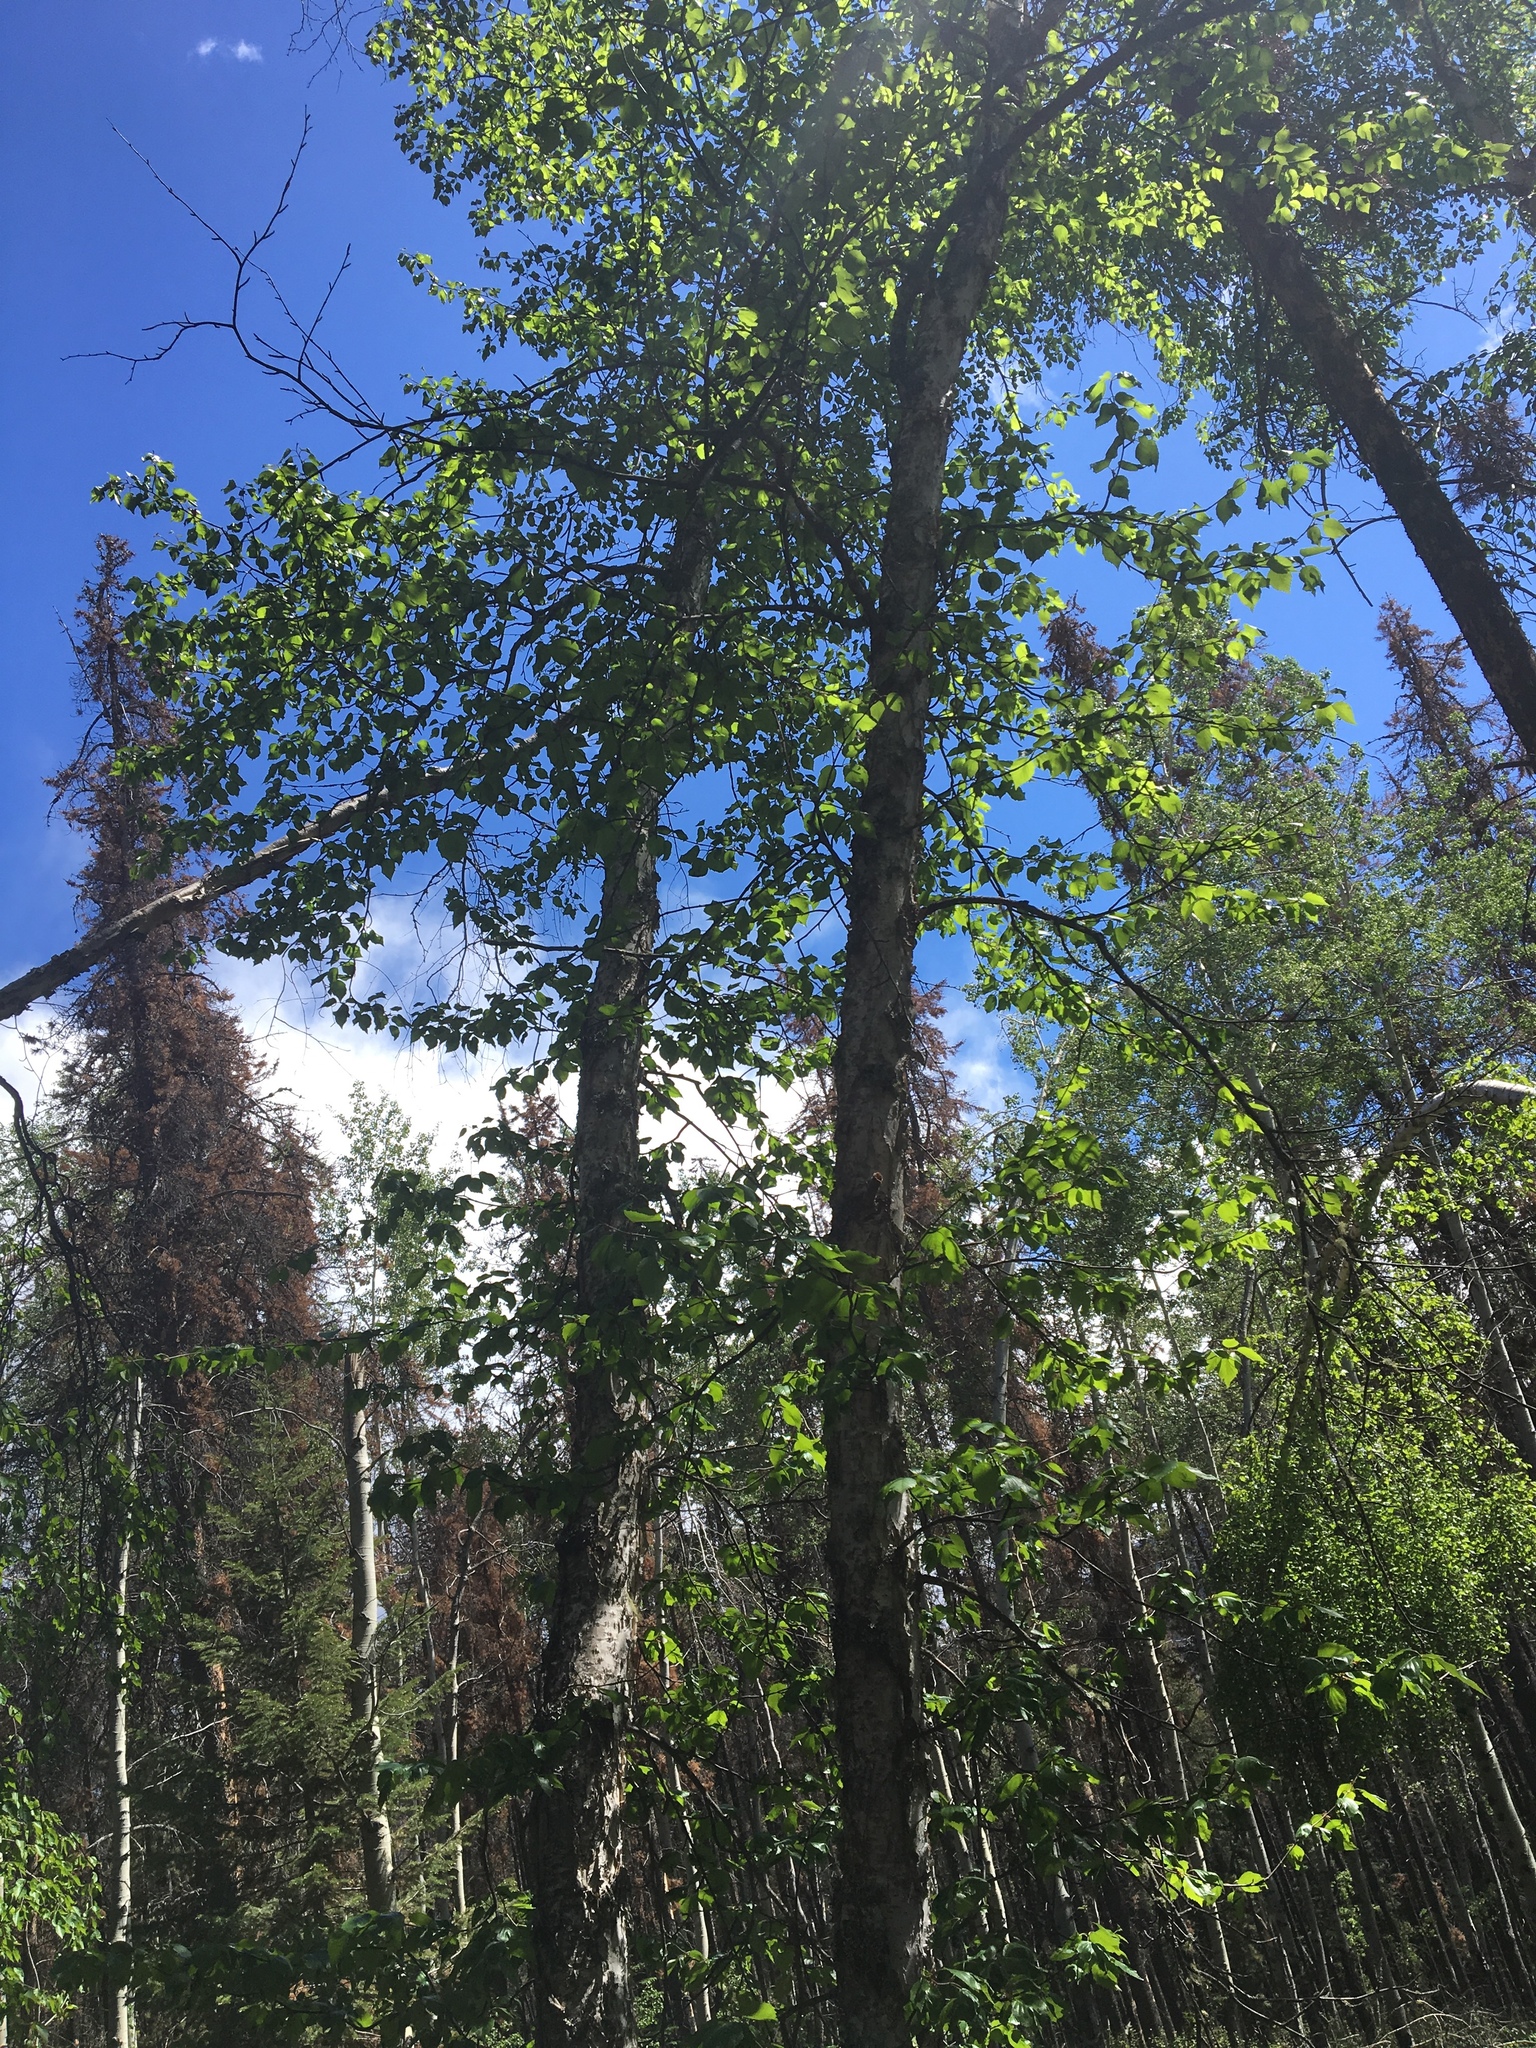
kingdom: Plantae
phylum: Tracheophyta
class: Magnoliopsida
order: Fagales
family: Betulaceae
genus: Betula
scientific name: Betula papyrifera
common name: Paper birch
